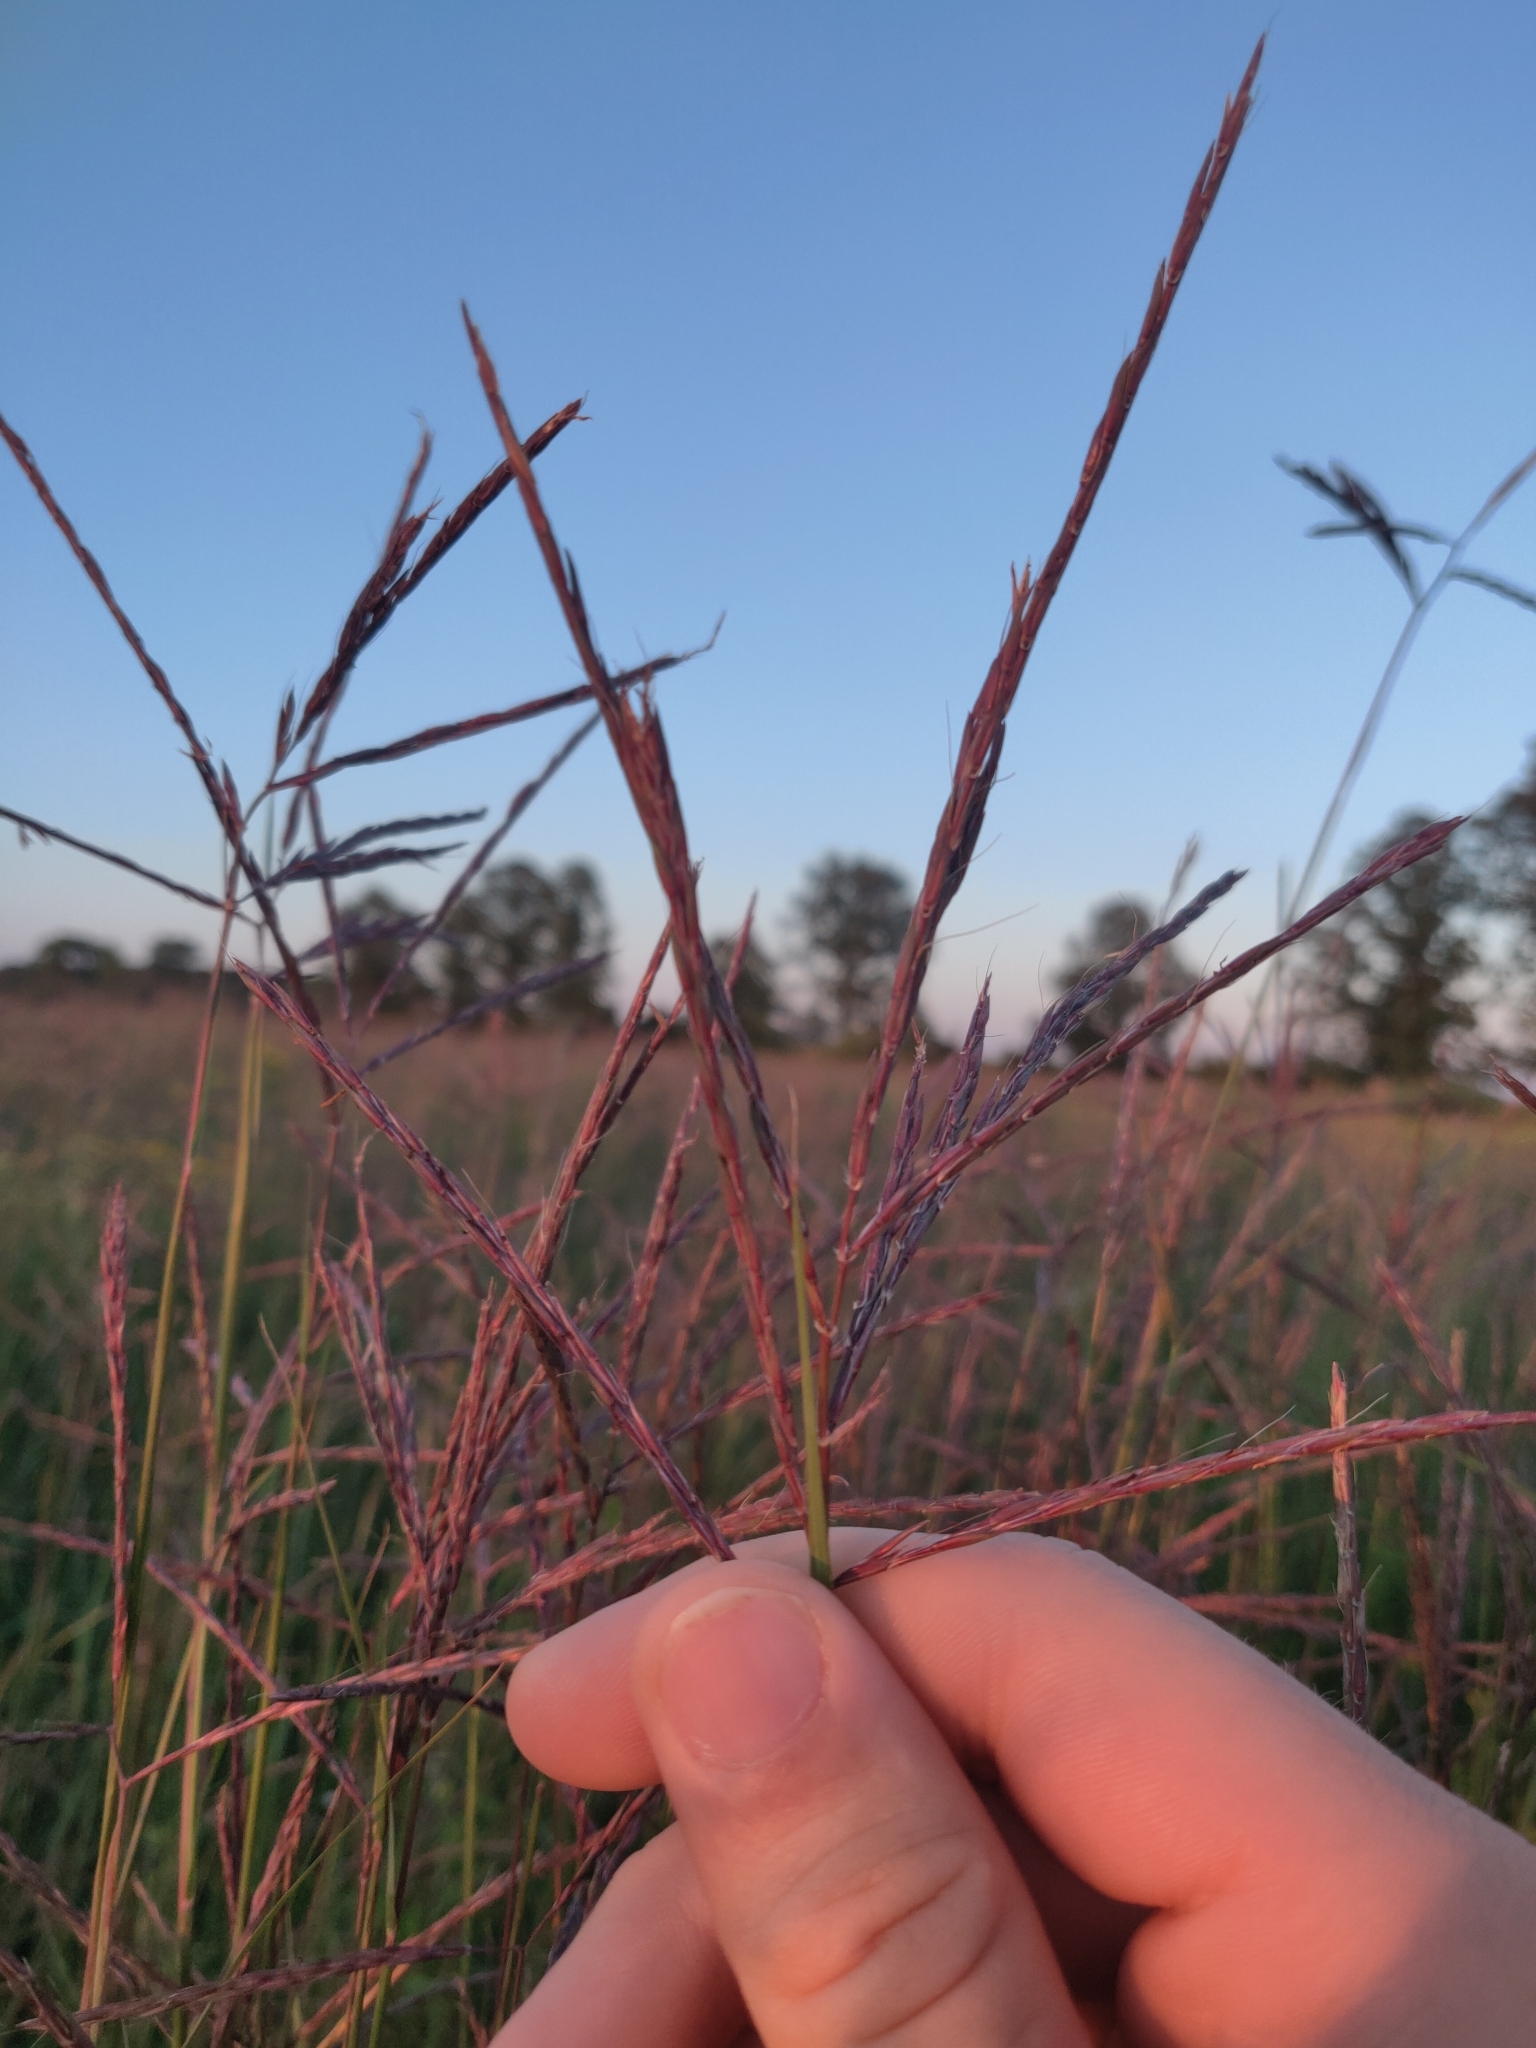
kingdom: Plantae
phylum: Tracheophyta
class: Liliopsida
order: Poales
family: Poaceae
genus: Andropogon
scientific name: Andropogon gerardi
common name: Big bluestem
